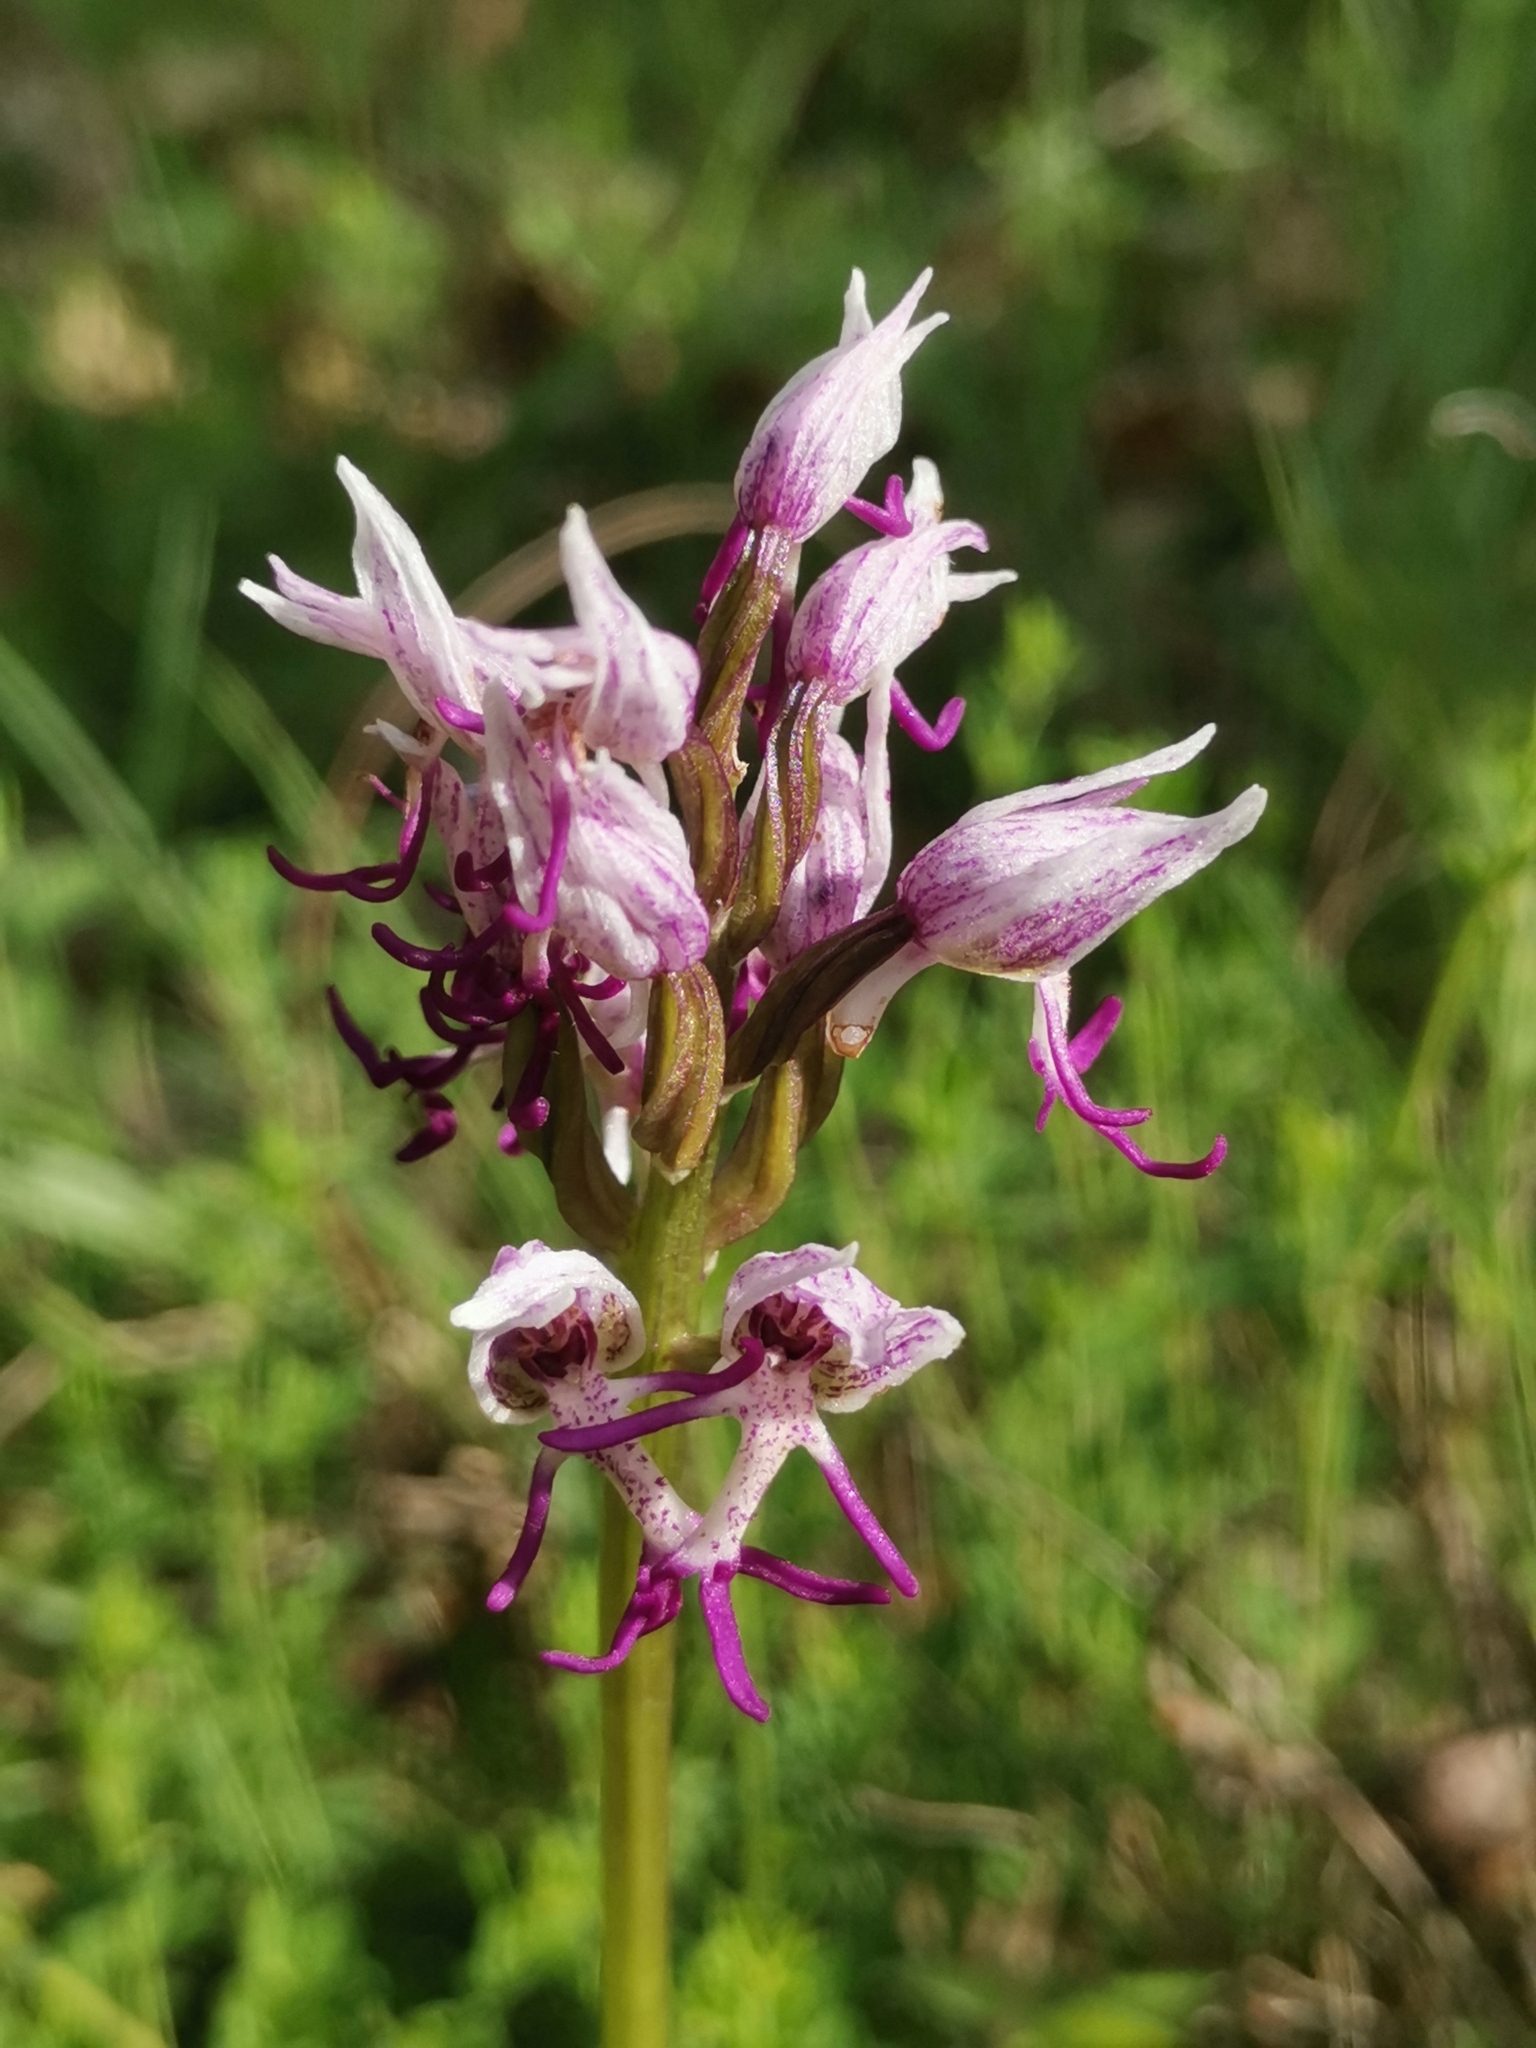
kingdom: Plantae
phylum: Tracheophyta
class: Liliopsida
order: Asparagales
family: Orchidaceae
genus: Orchis
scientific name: Orchis simia
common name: Monkey orchid
